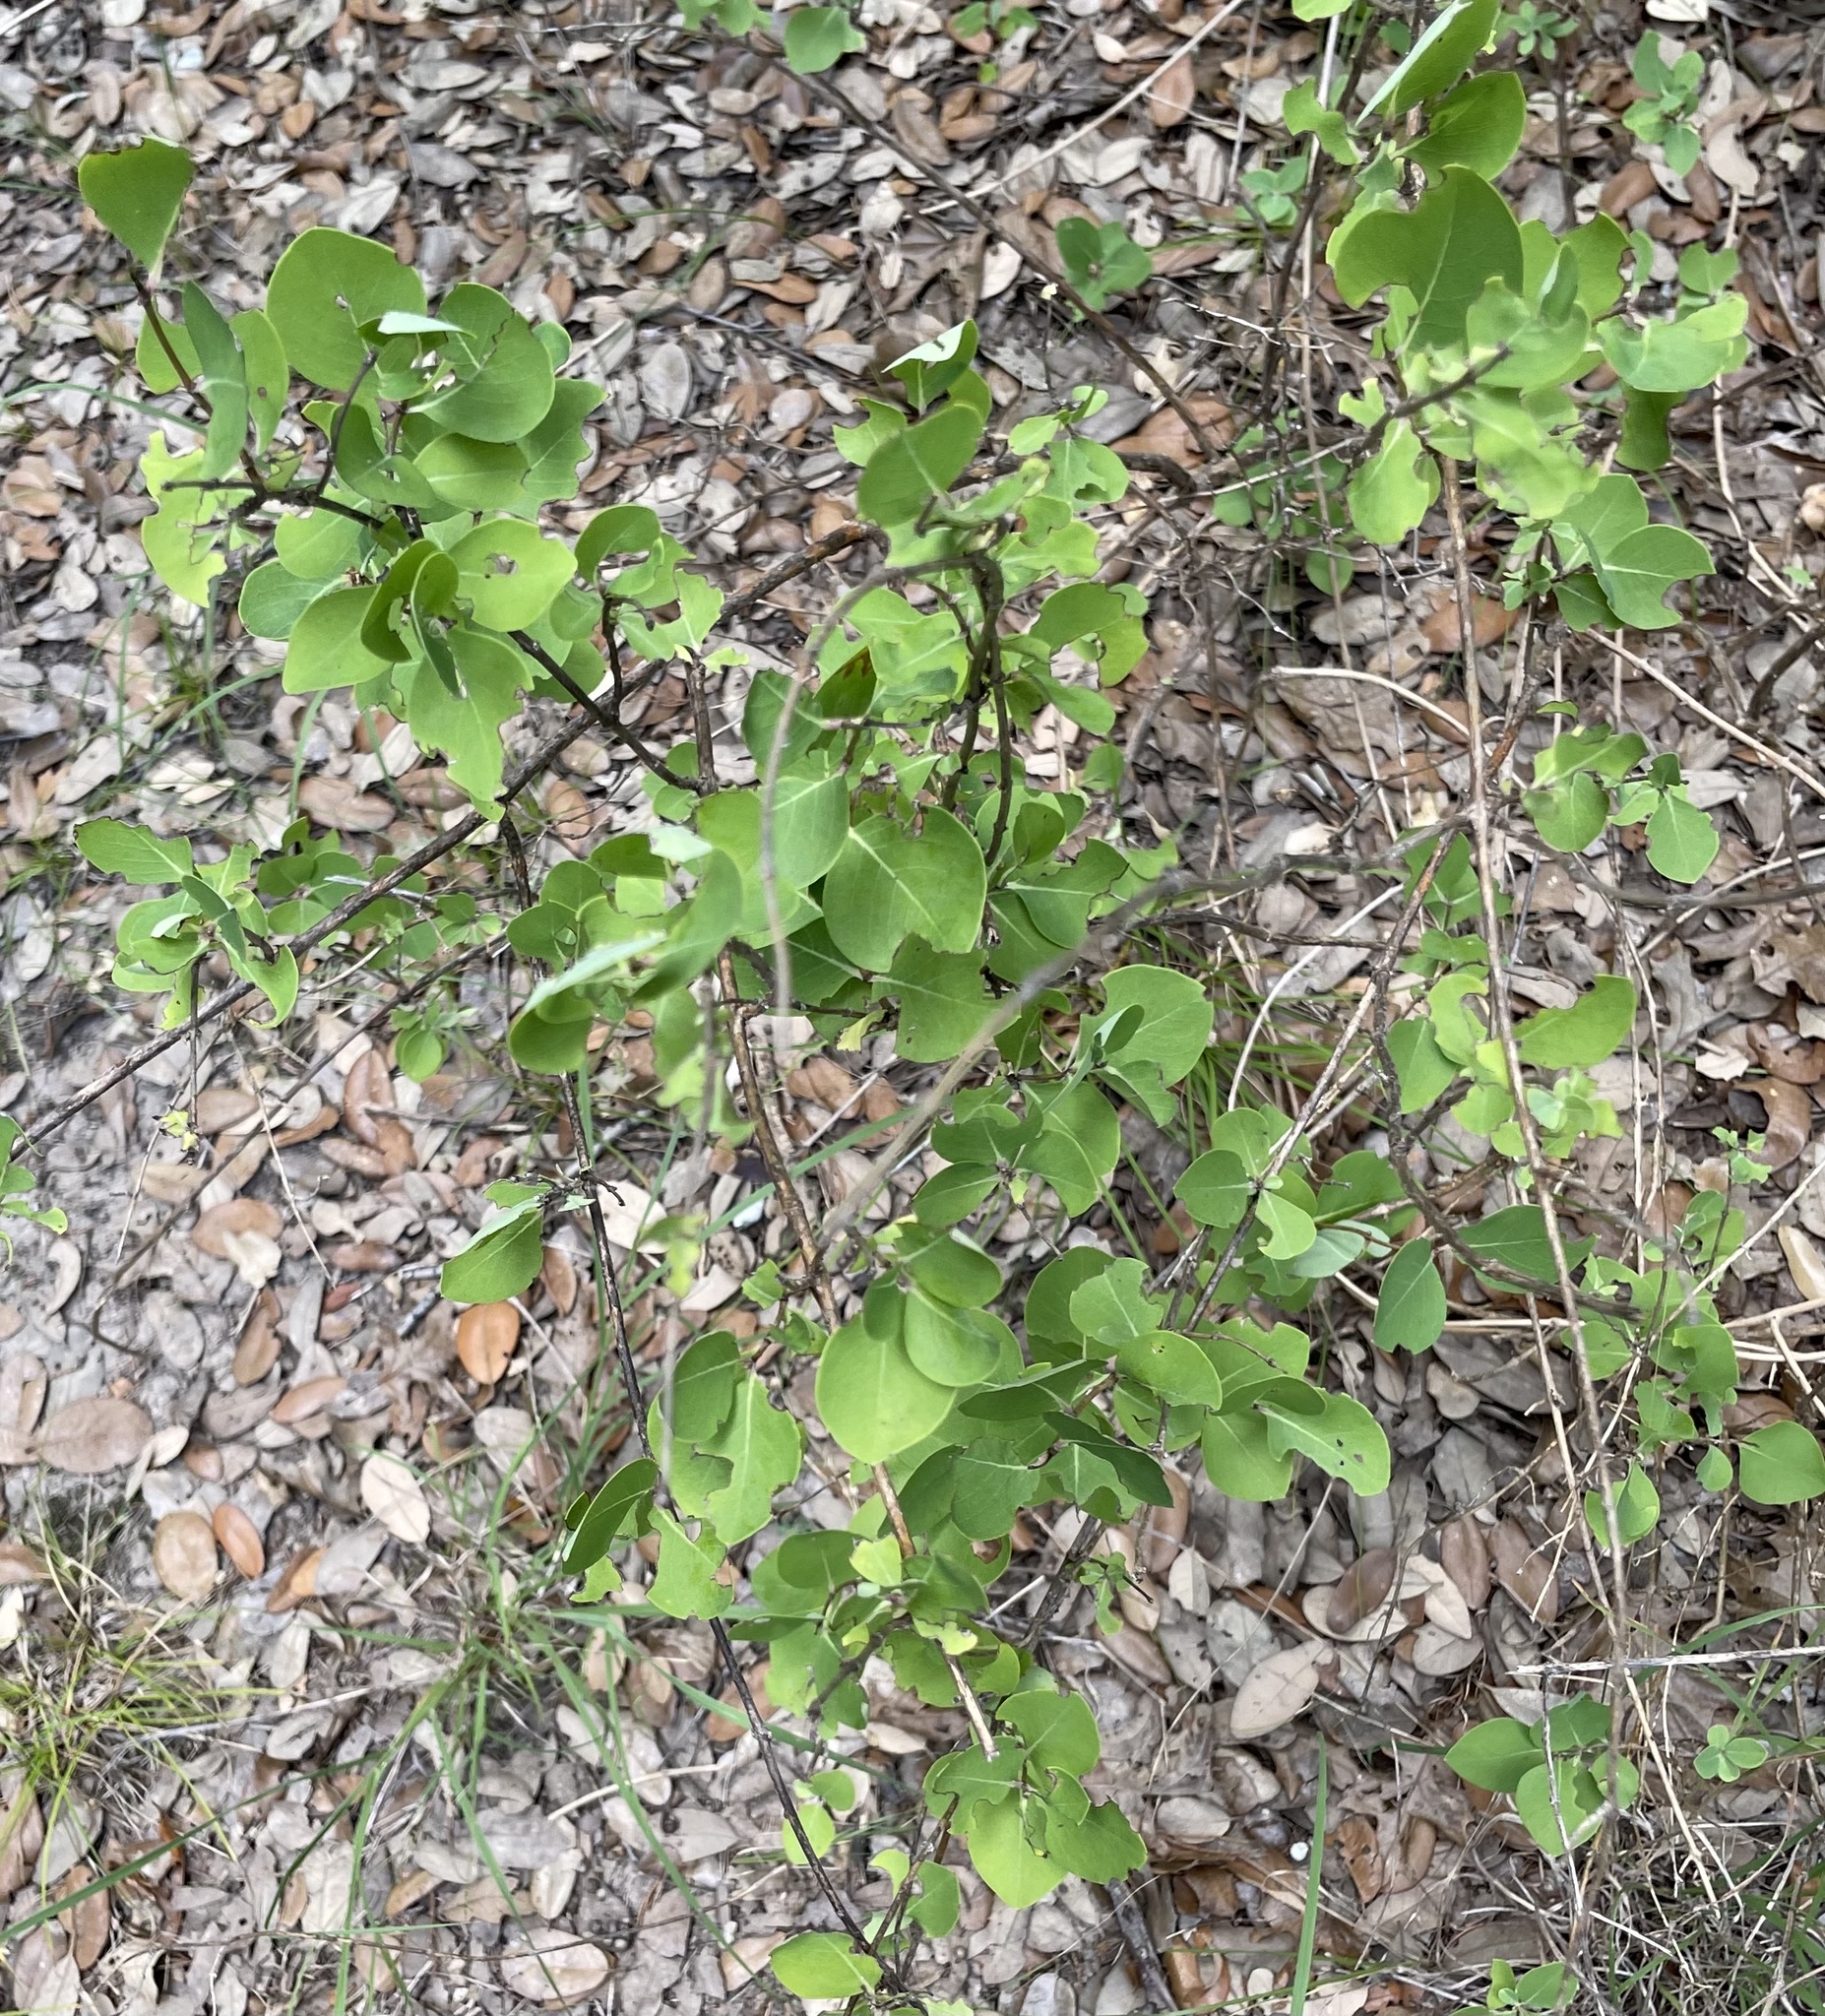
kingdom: Plantae
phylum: Tracheophyta
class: Magnoliopsida
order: Dipsacales
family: Caprifoliaceae
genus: Lonicera
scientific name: Lonicera albiflora
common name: White honeysuckle
